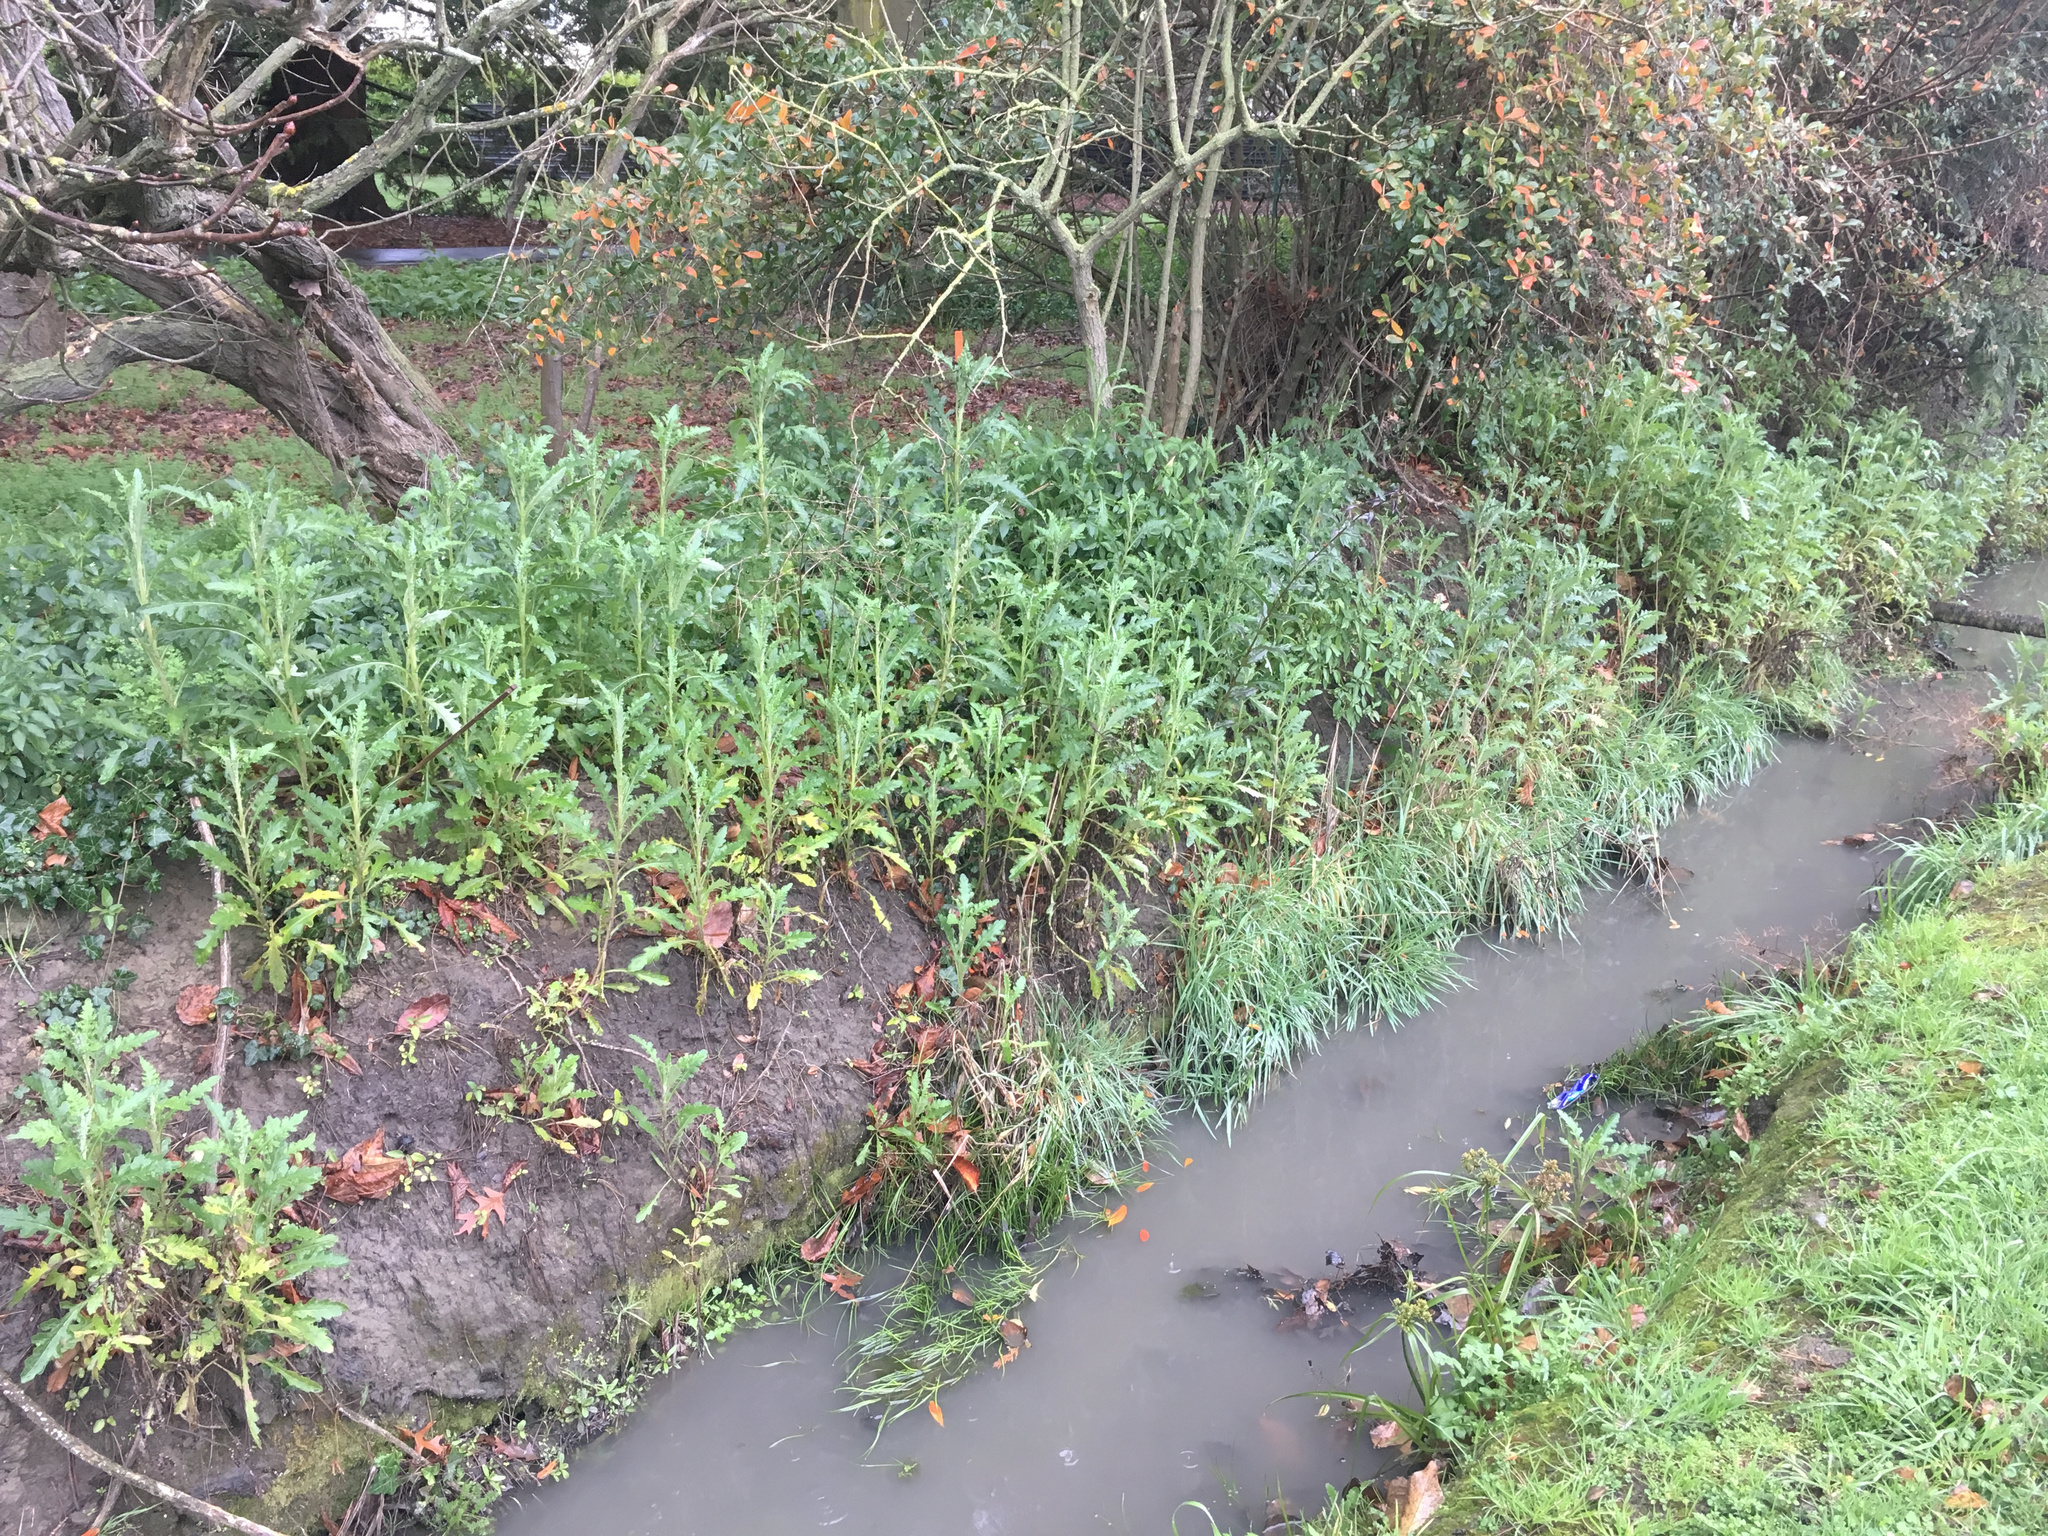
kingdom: Plantae
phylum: Tracheophyta
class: Magnoliopsida
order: Asterales
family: Asteraceae
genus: Senecio
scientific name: Senecio glomeratus
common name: Cutleaf burnweed
